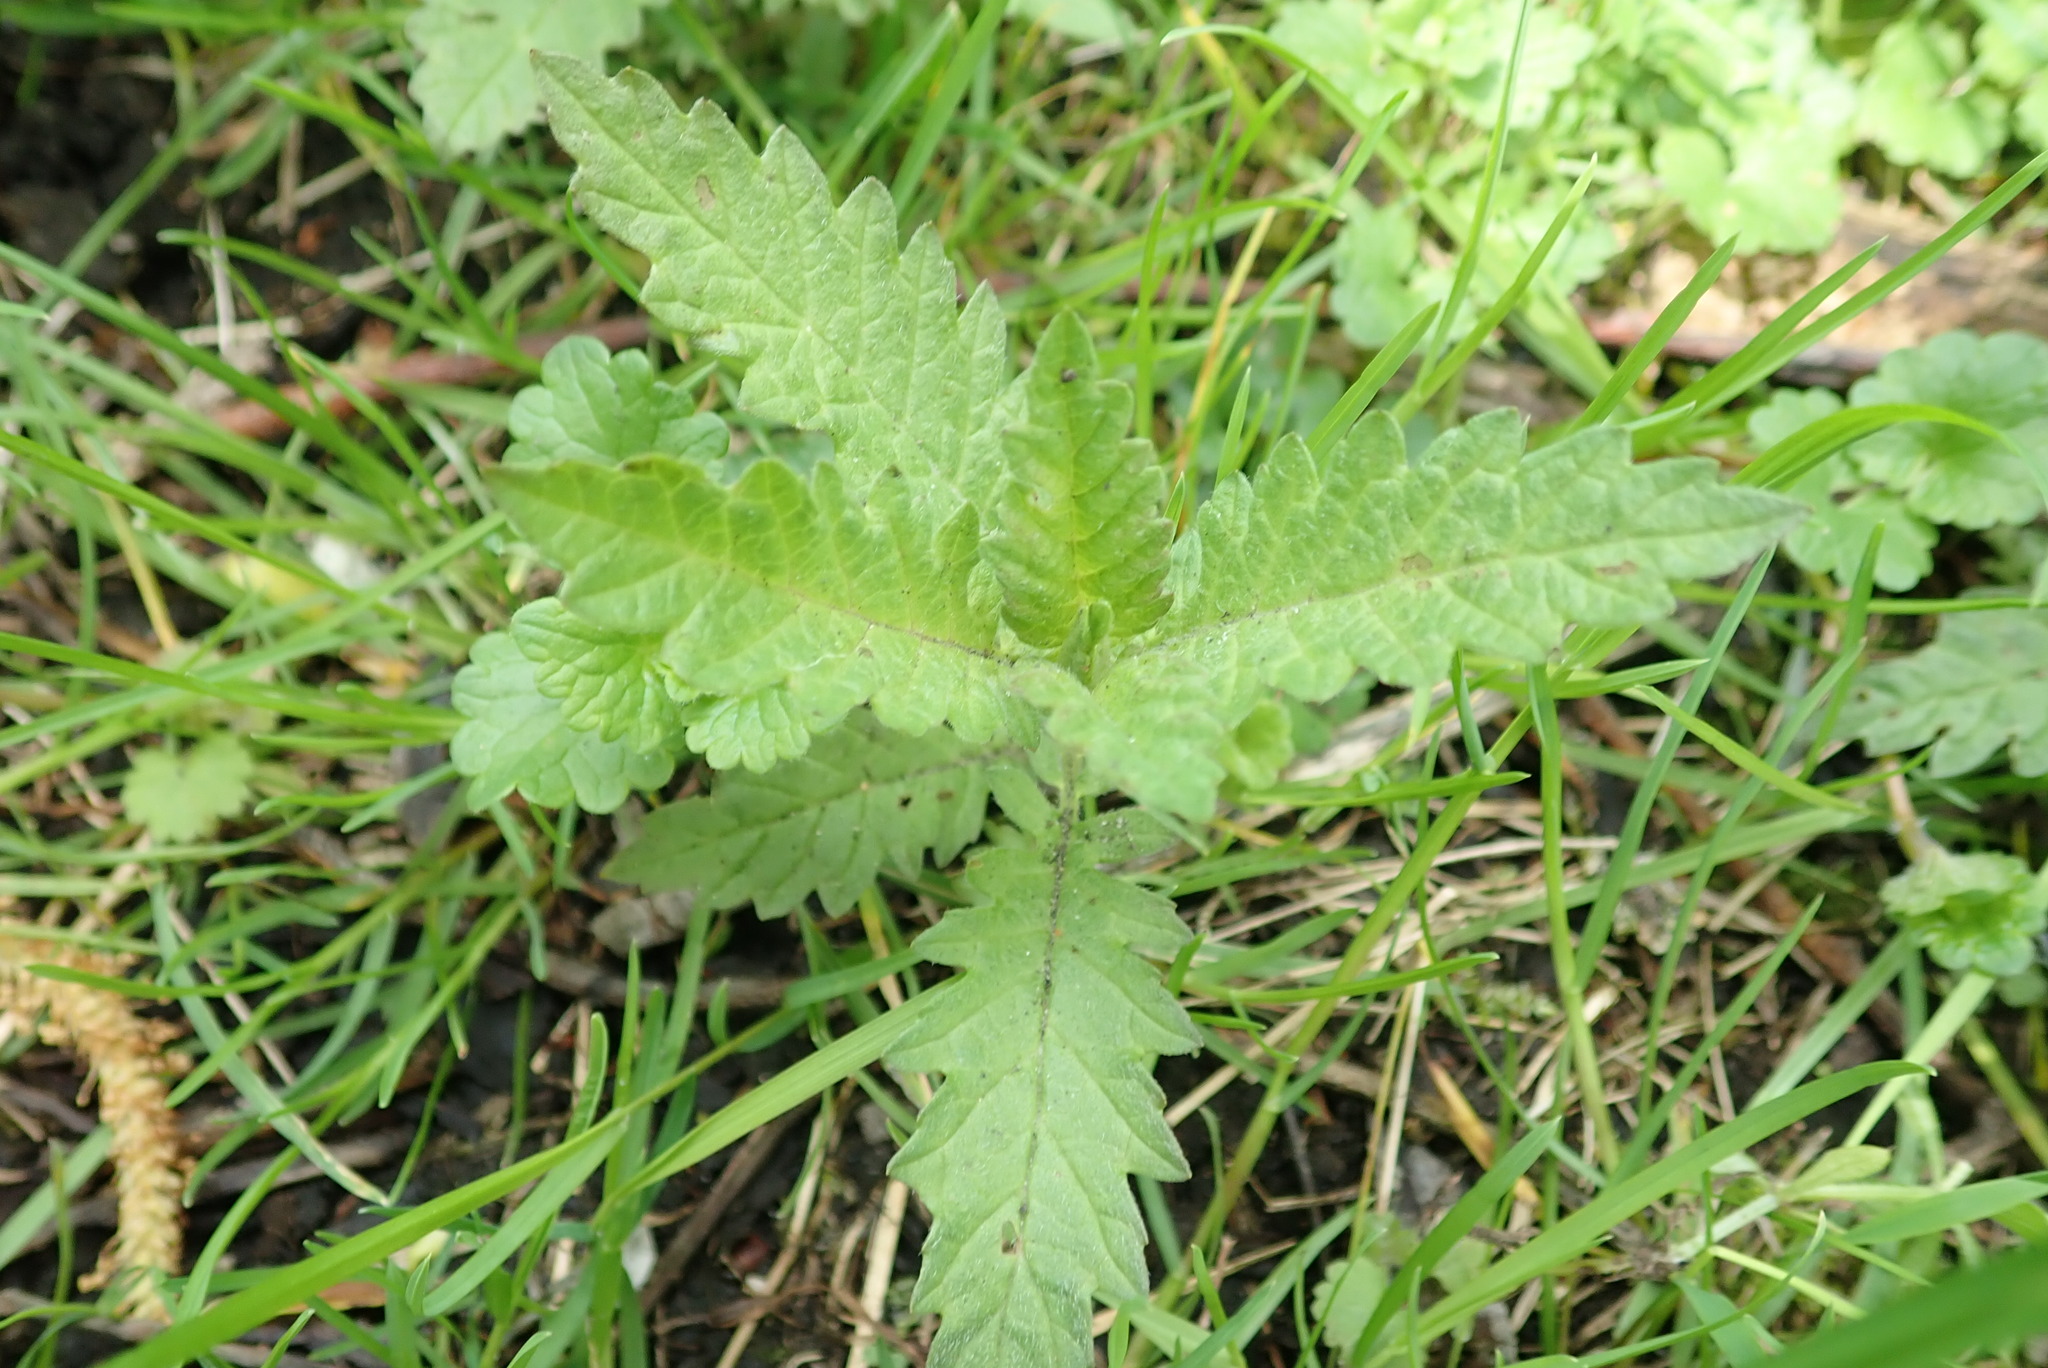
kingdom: Plantae
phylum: Tracheophyta
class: Magnoliopsida
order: Lamiales
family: Lamiaceae
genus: Lycopus
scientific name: Lycopus europaeus
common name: European bugleweed
